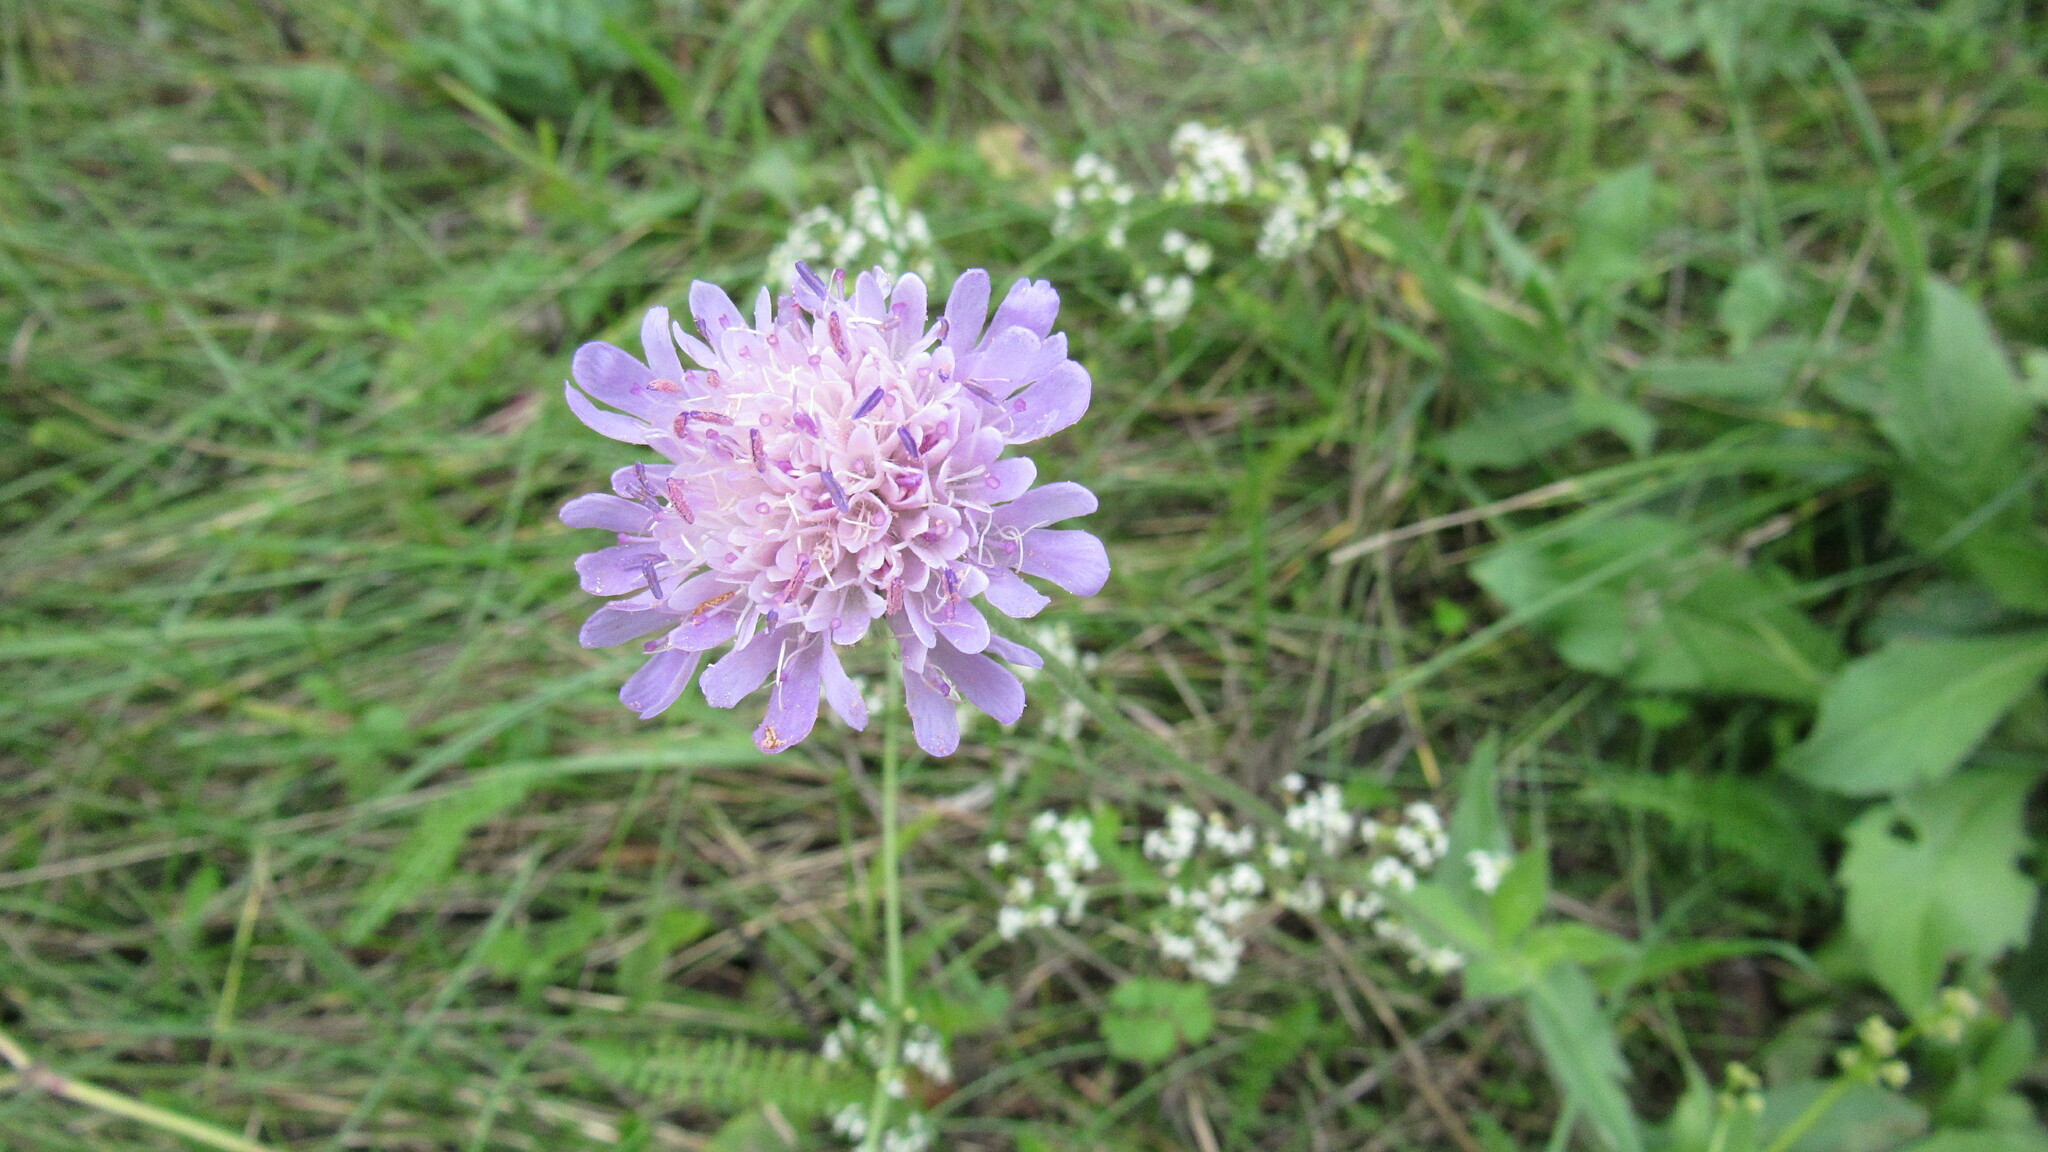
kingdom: Plantae
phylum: Tracheophyta
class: Magnoliopsida
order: Dipsacales
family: Caprifoliaceae
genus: Knautia
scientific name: Knautia arvensis
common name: Field scabiosa
